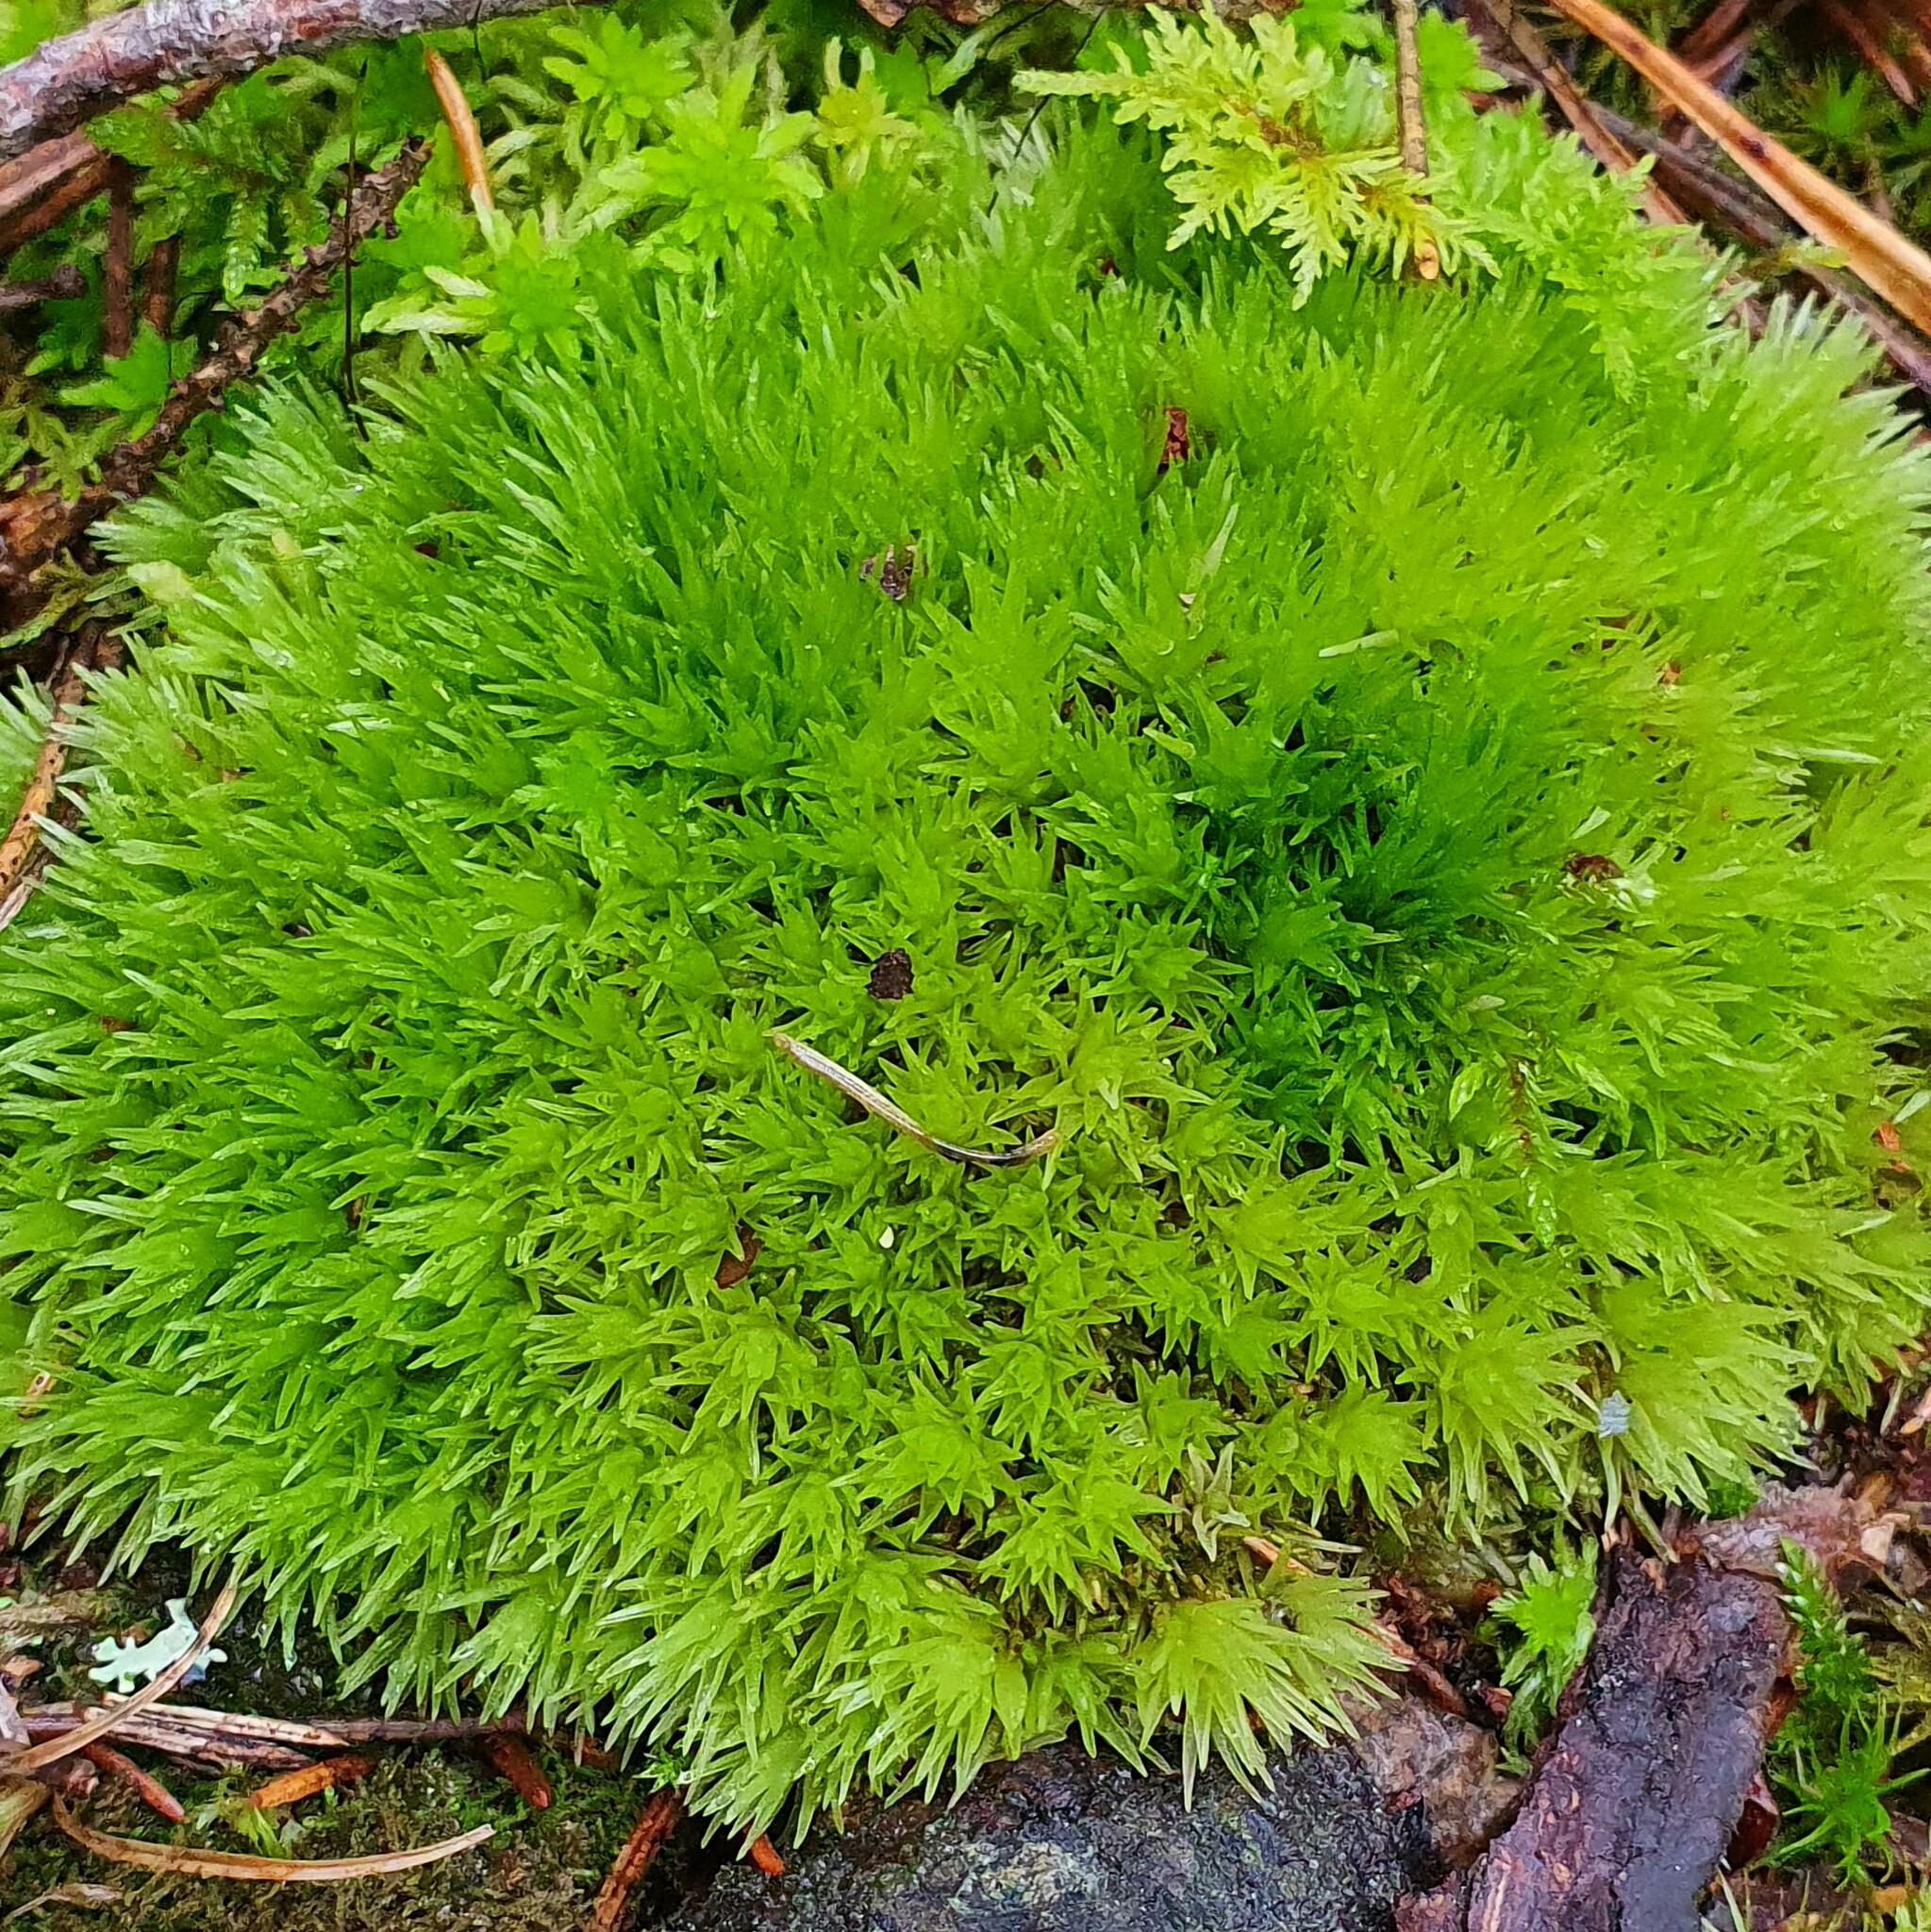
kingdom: Plantae
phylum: Bryophyta
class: Bryopsida
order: Dicranales
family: Leucobryaceae
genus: Leucobryum
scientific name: Leucobryum glaucum
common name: Large white-moss
